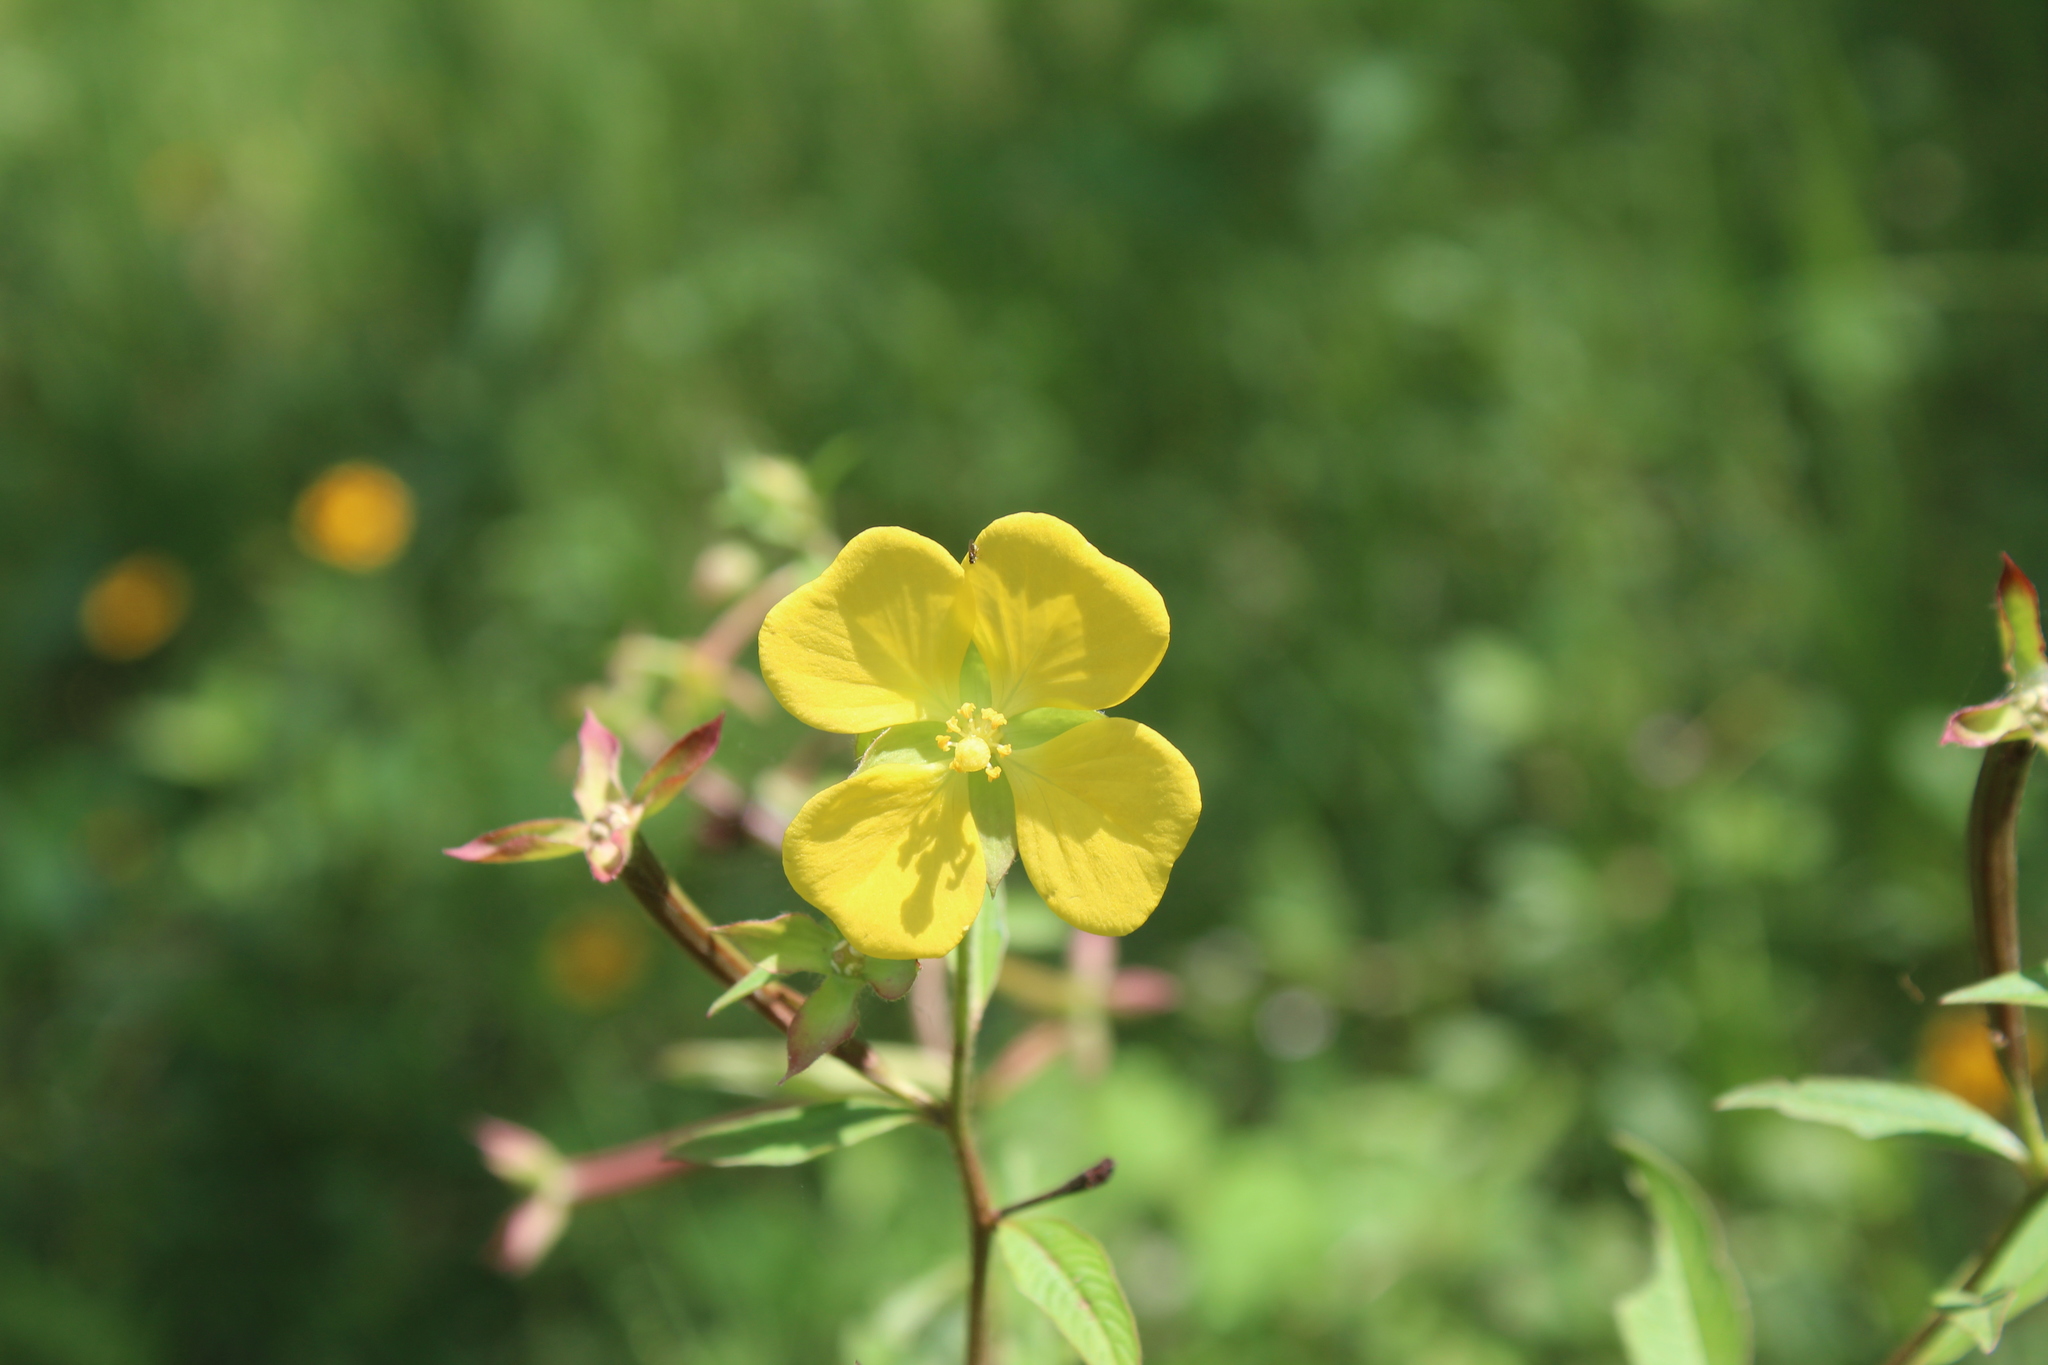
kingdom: Plantae
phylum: Tracheophyta
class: Magnoliopsida
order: Myrtales
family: Onagraceae
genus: Ludwigia
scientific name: Ludwigia octovalvis
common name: Water-primrose
